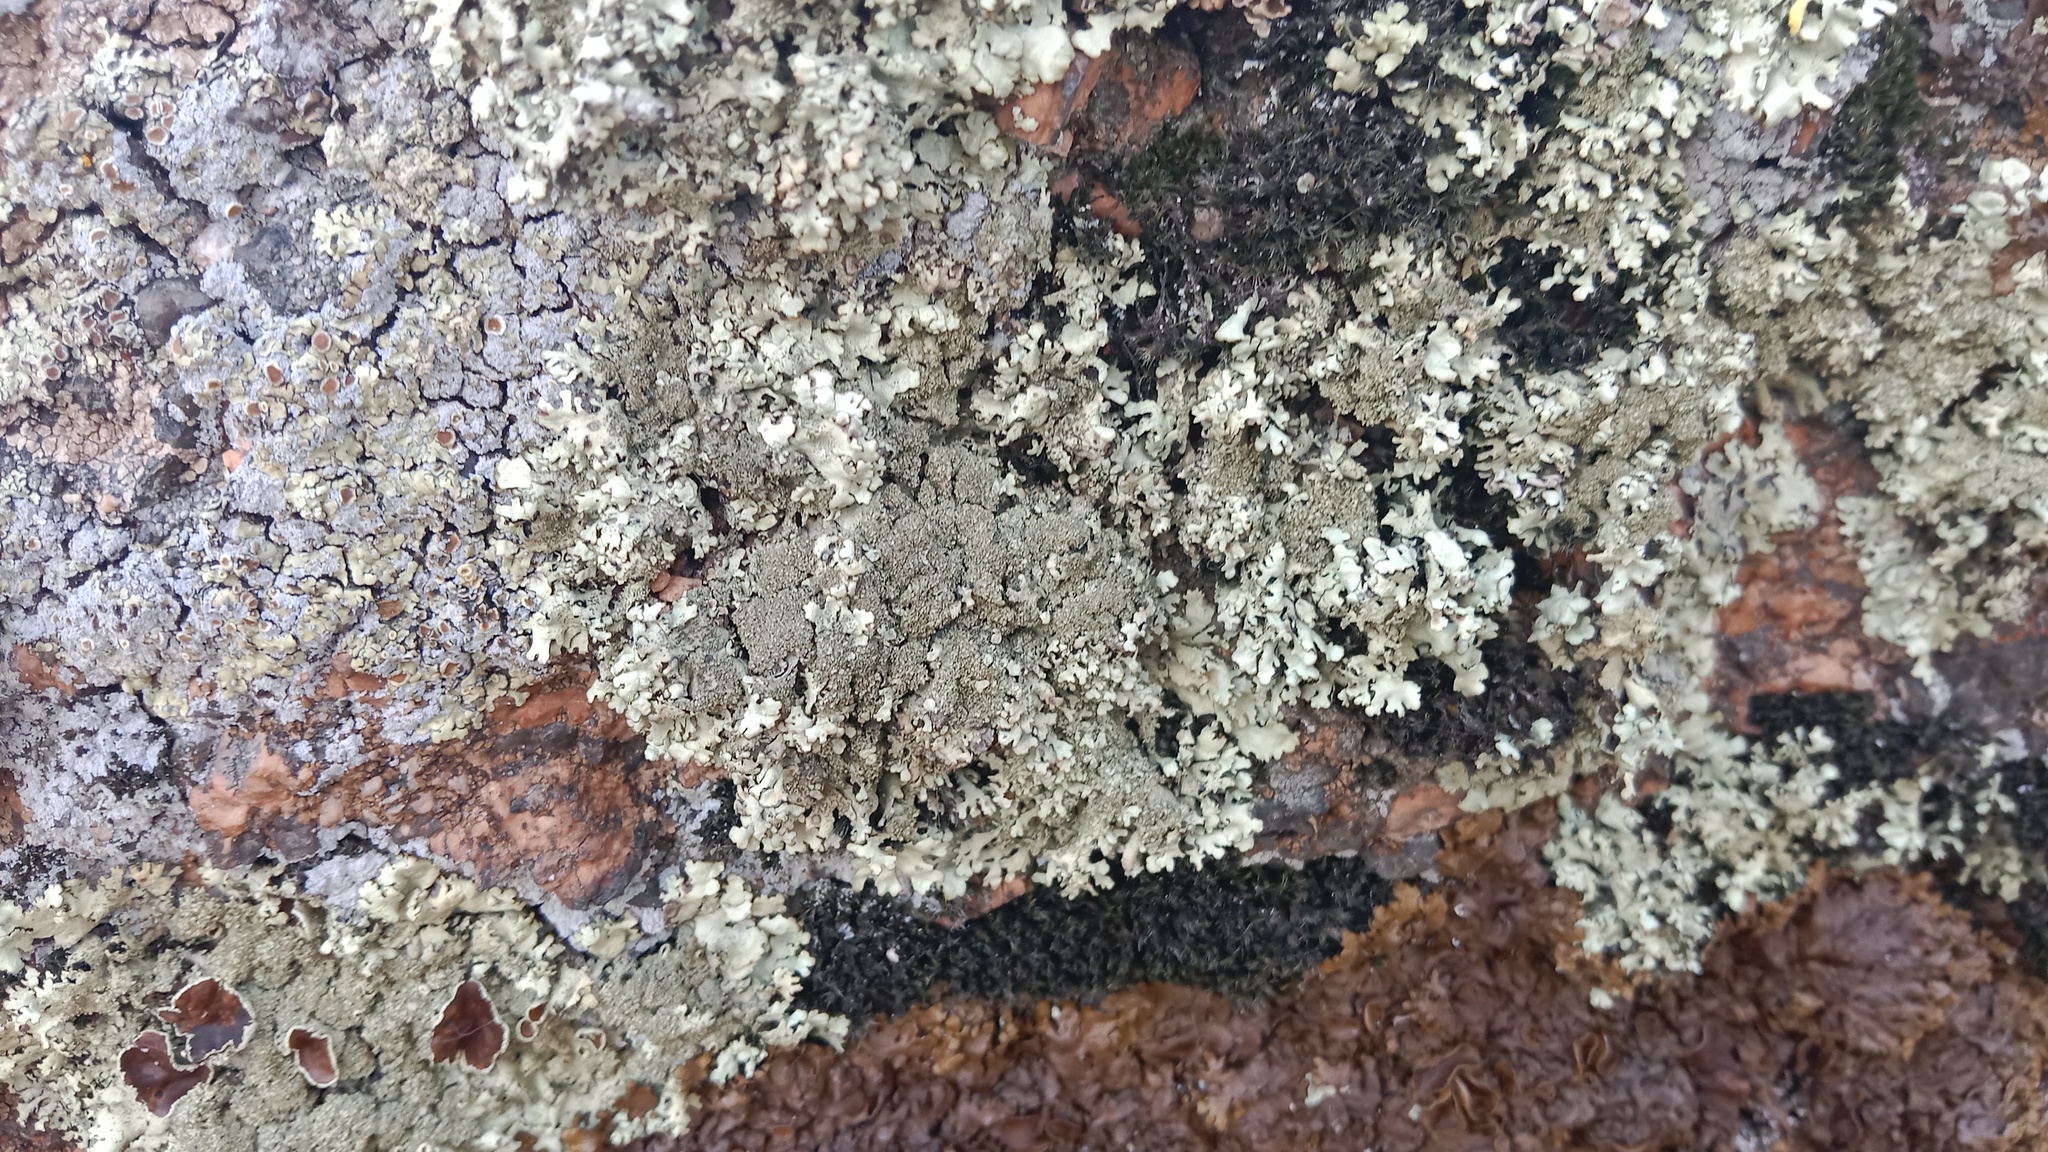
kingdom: Fungi
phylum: Ascomycota
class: Lecanoromycetes
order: Lecanorales
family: Parmeliaceae
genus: Xanthoparmelia
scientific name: Xanthoparmelia conspersa
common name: Peppered rock shield
